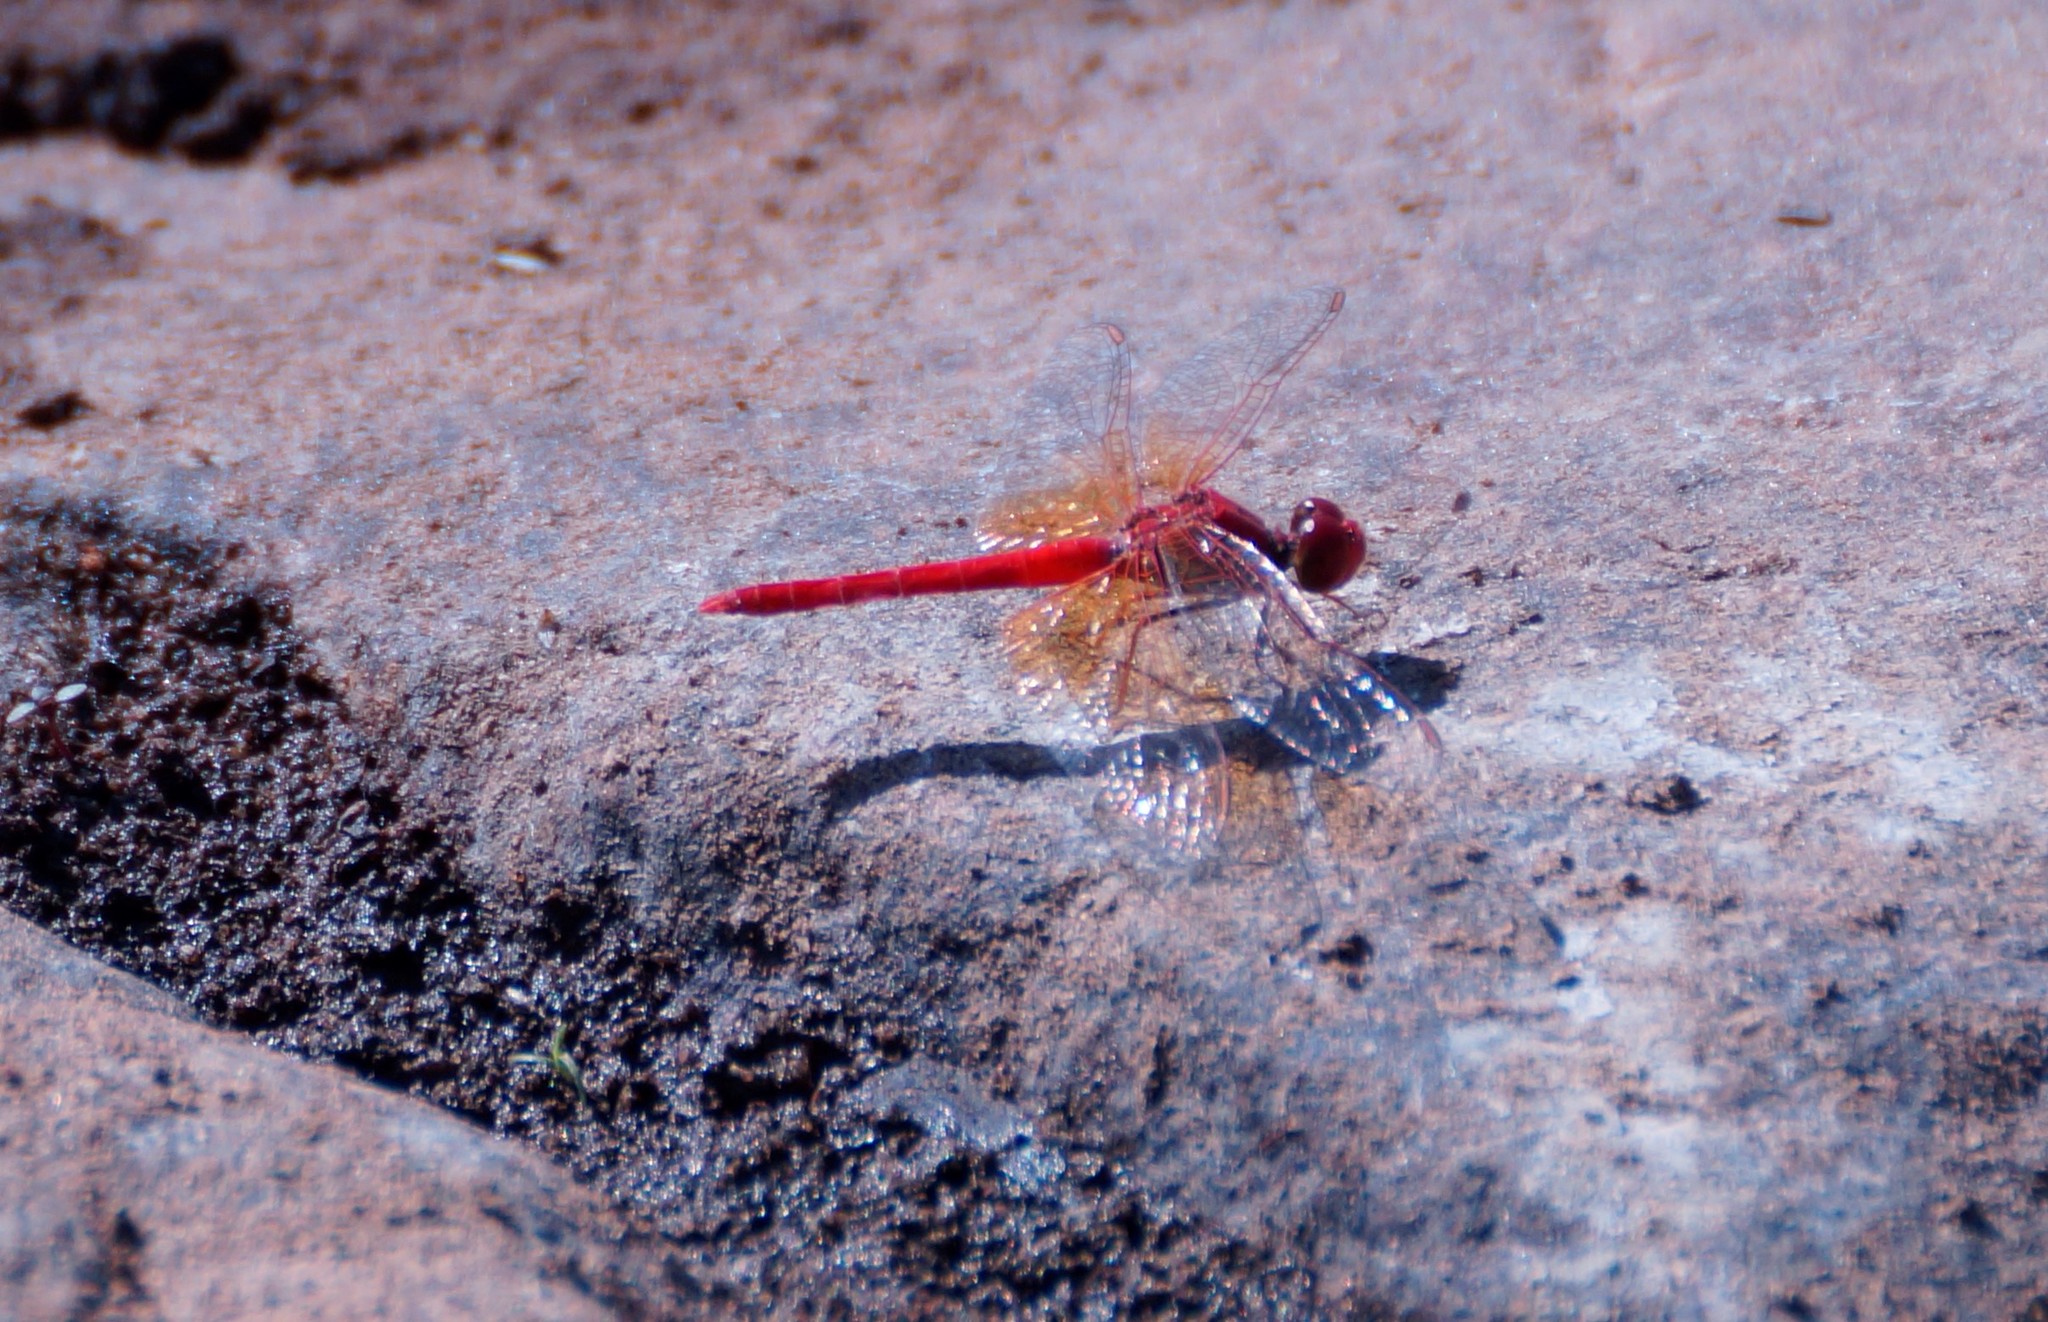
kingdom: Animalia
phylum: Arthropoda
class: Insecta
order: Odonata
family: Libellulidae
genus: Diplacodes
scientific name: Diplacodes haematodes
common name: Scarlet percher
